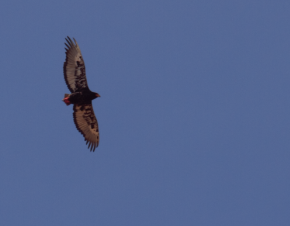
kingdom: Animalia
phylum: Chordata
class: Aves
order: Accipitriformes
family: Accipitridae
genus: Terathopius
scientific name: Terathopius ecaudatus
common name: Bateleur
